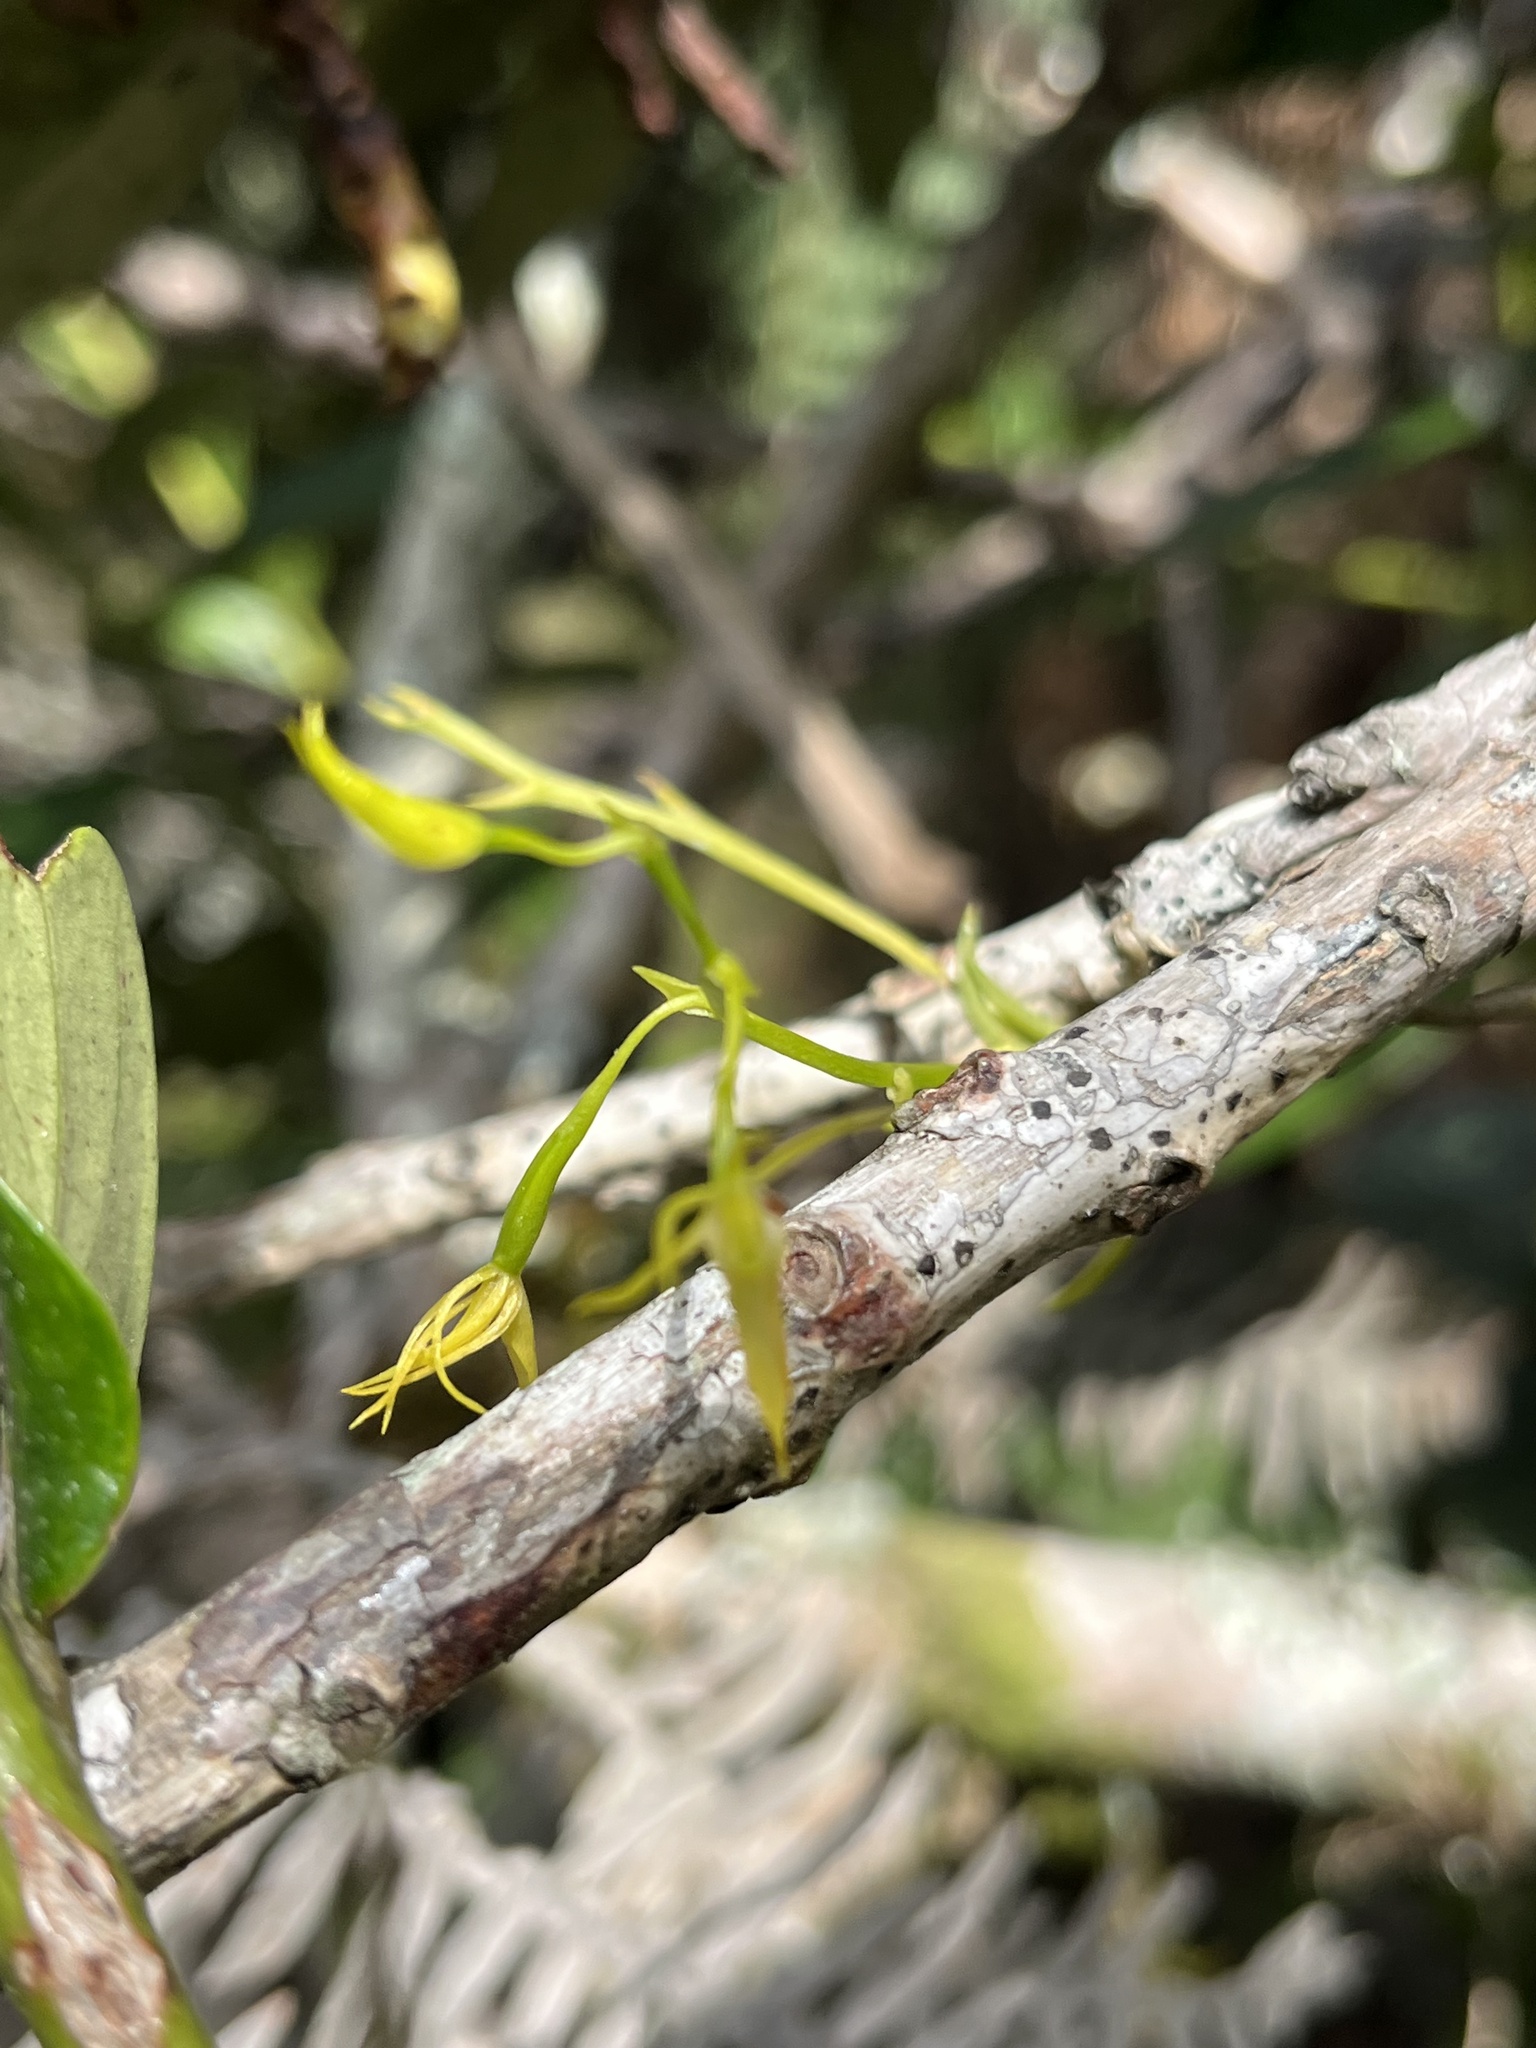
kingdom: Plantae
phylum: Tracheophyta
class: Liliopsida
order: Asparagales
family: Orchidaceae
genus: Hofmeisterella
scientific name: Hofmeisterella eumicroscopica
